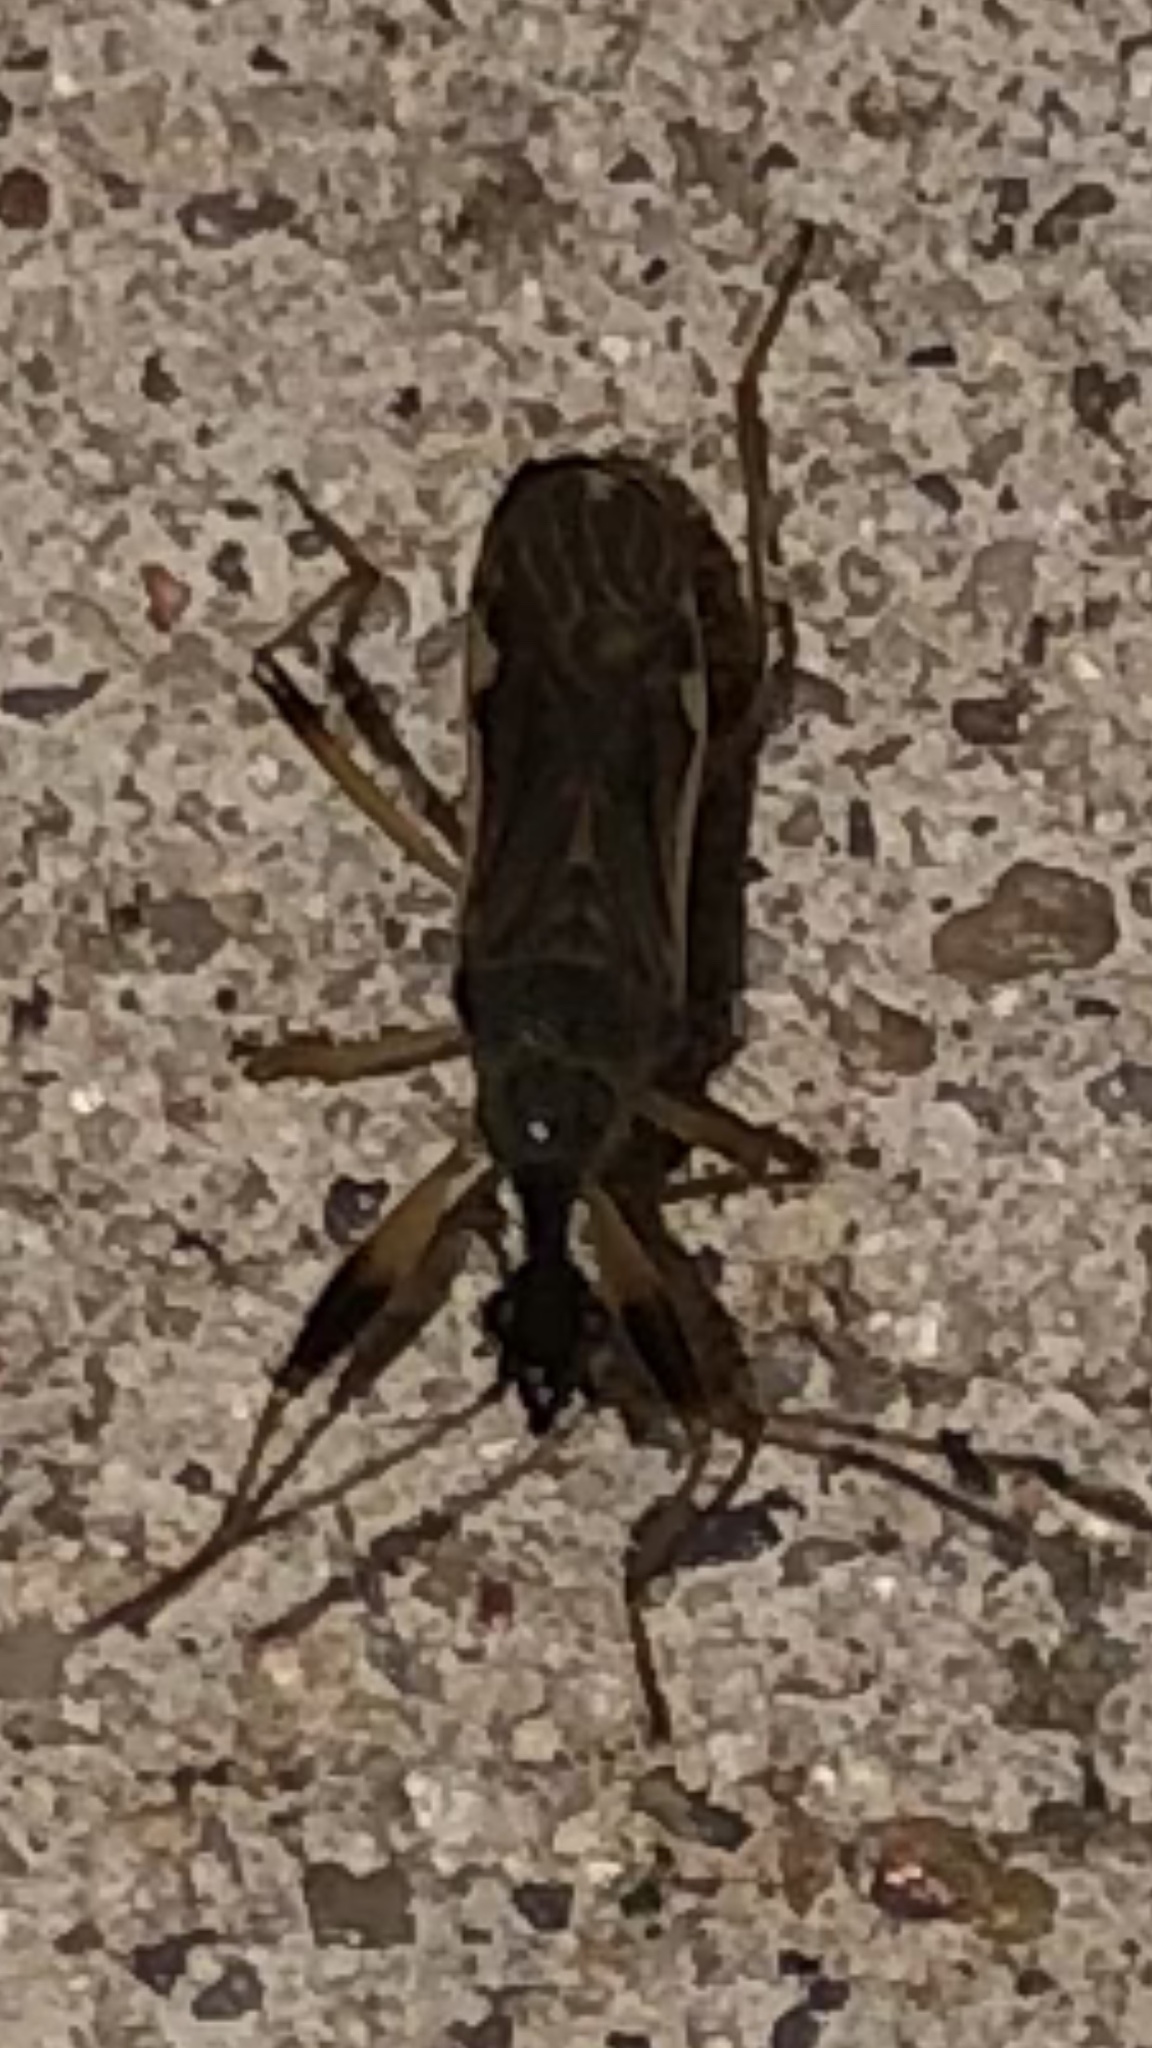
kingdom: Animalia
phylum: Arthropoda
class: Insecta
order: Hemiptera
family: Rhyparochromidae
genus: Myodocha
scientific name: Myodocha serripes
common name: Long-necked seed bug
